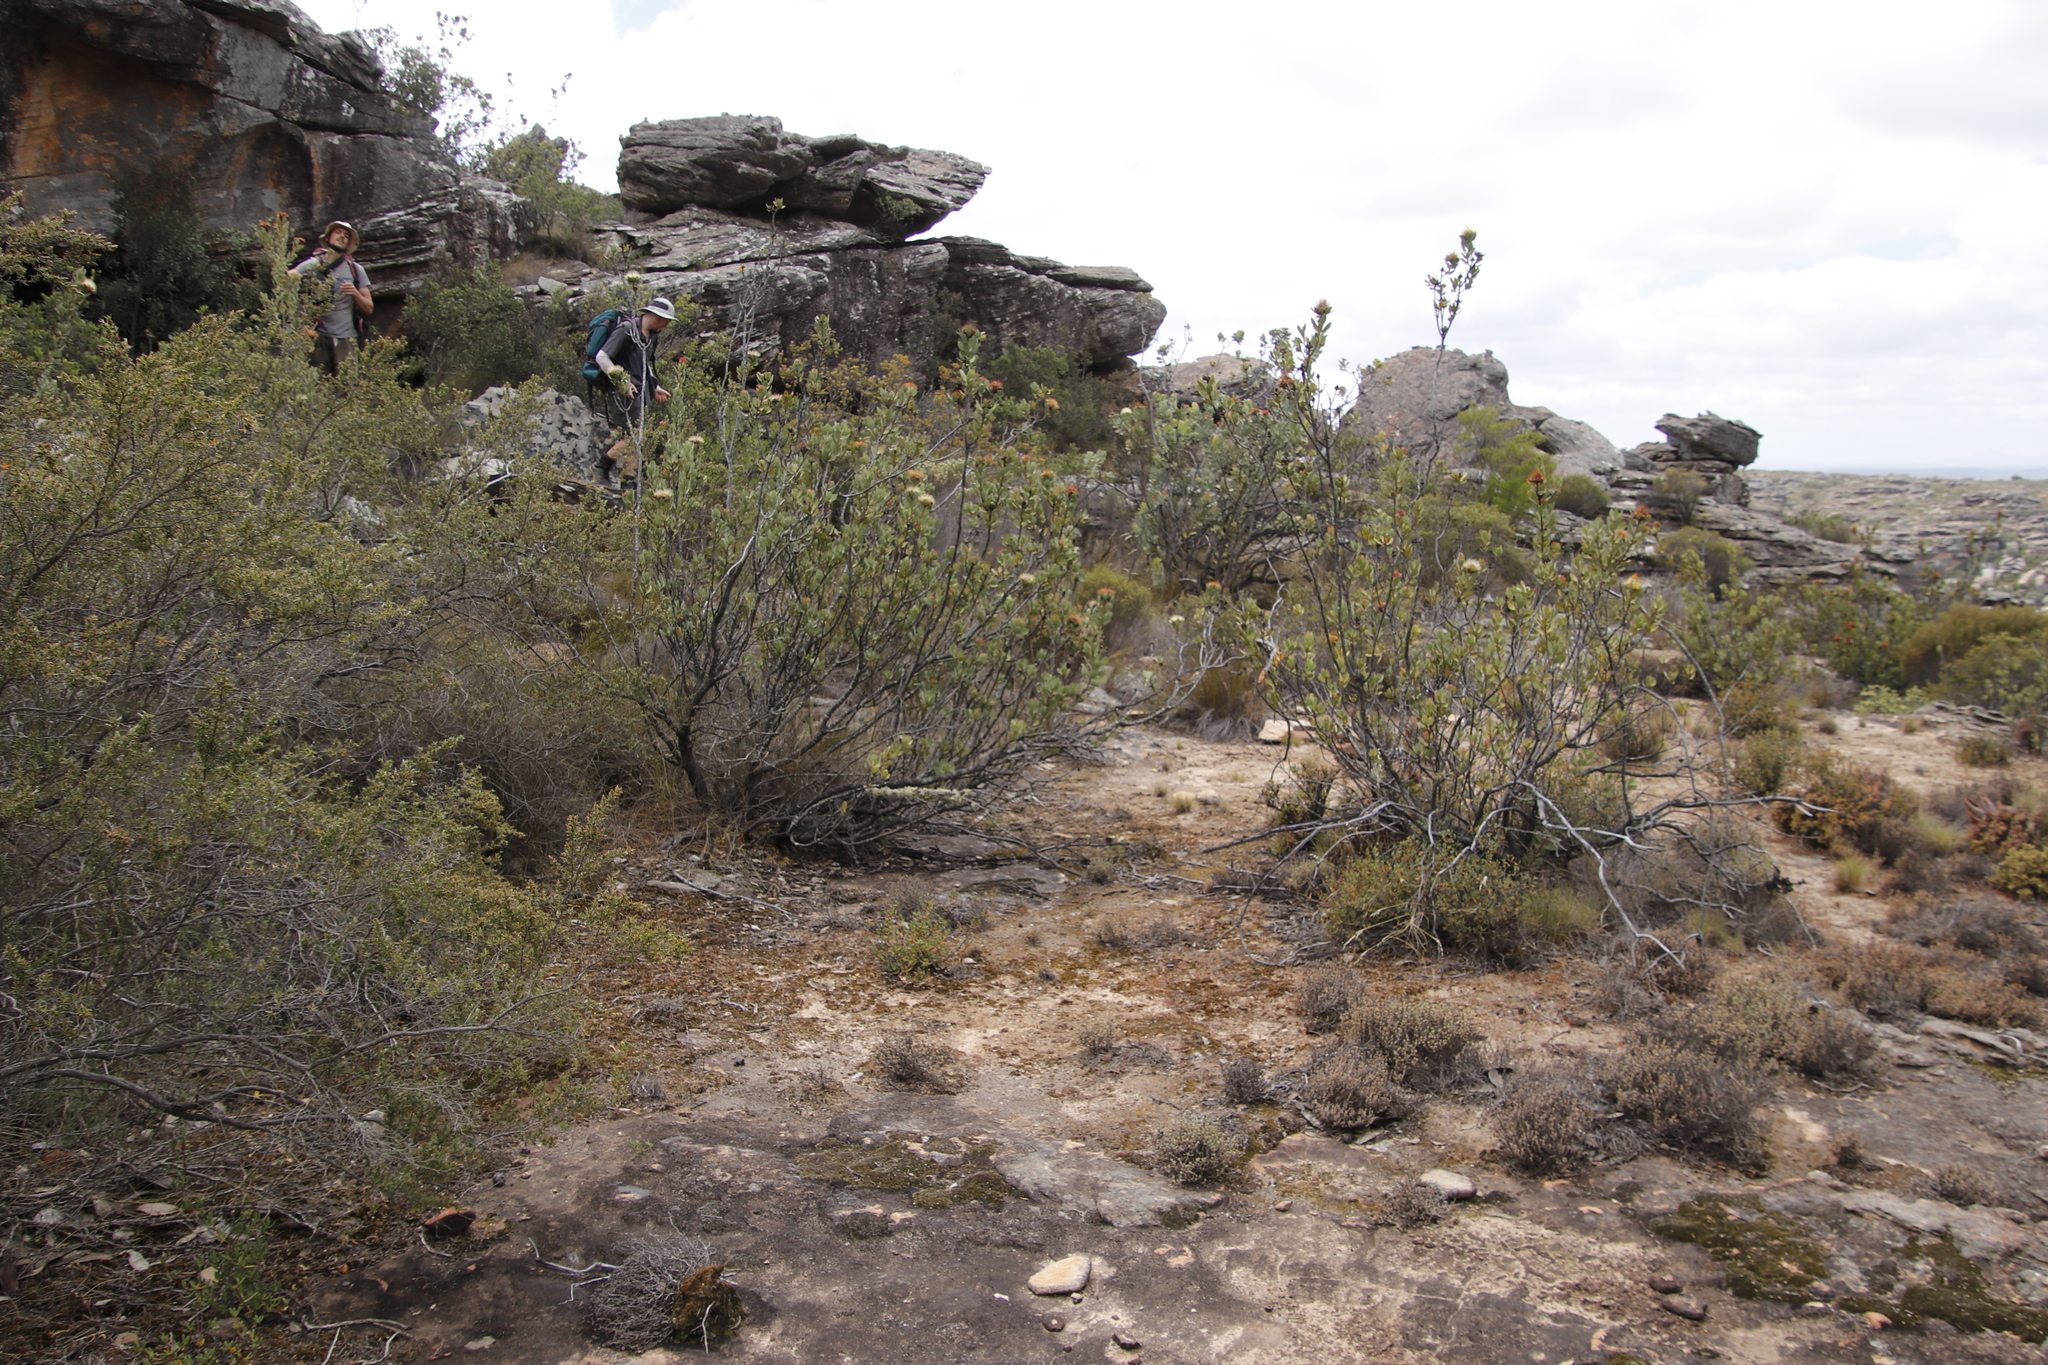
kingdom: Plantae
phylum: Tracheophyta
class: Magnoliopsida
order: Proteales
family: Proteaceae
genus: Protea
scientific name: Protea glabra
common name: Chestnut sugarbush
